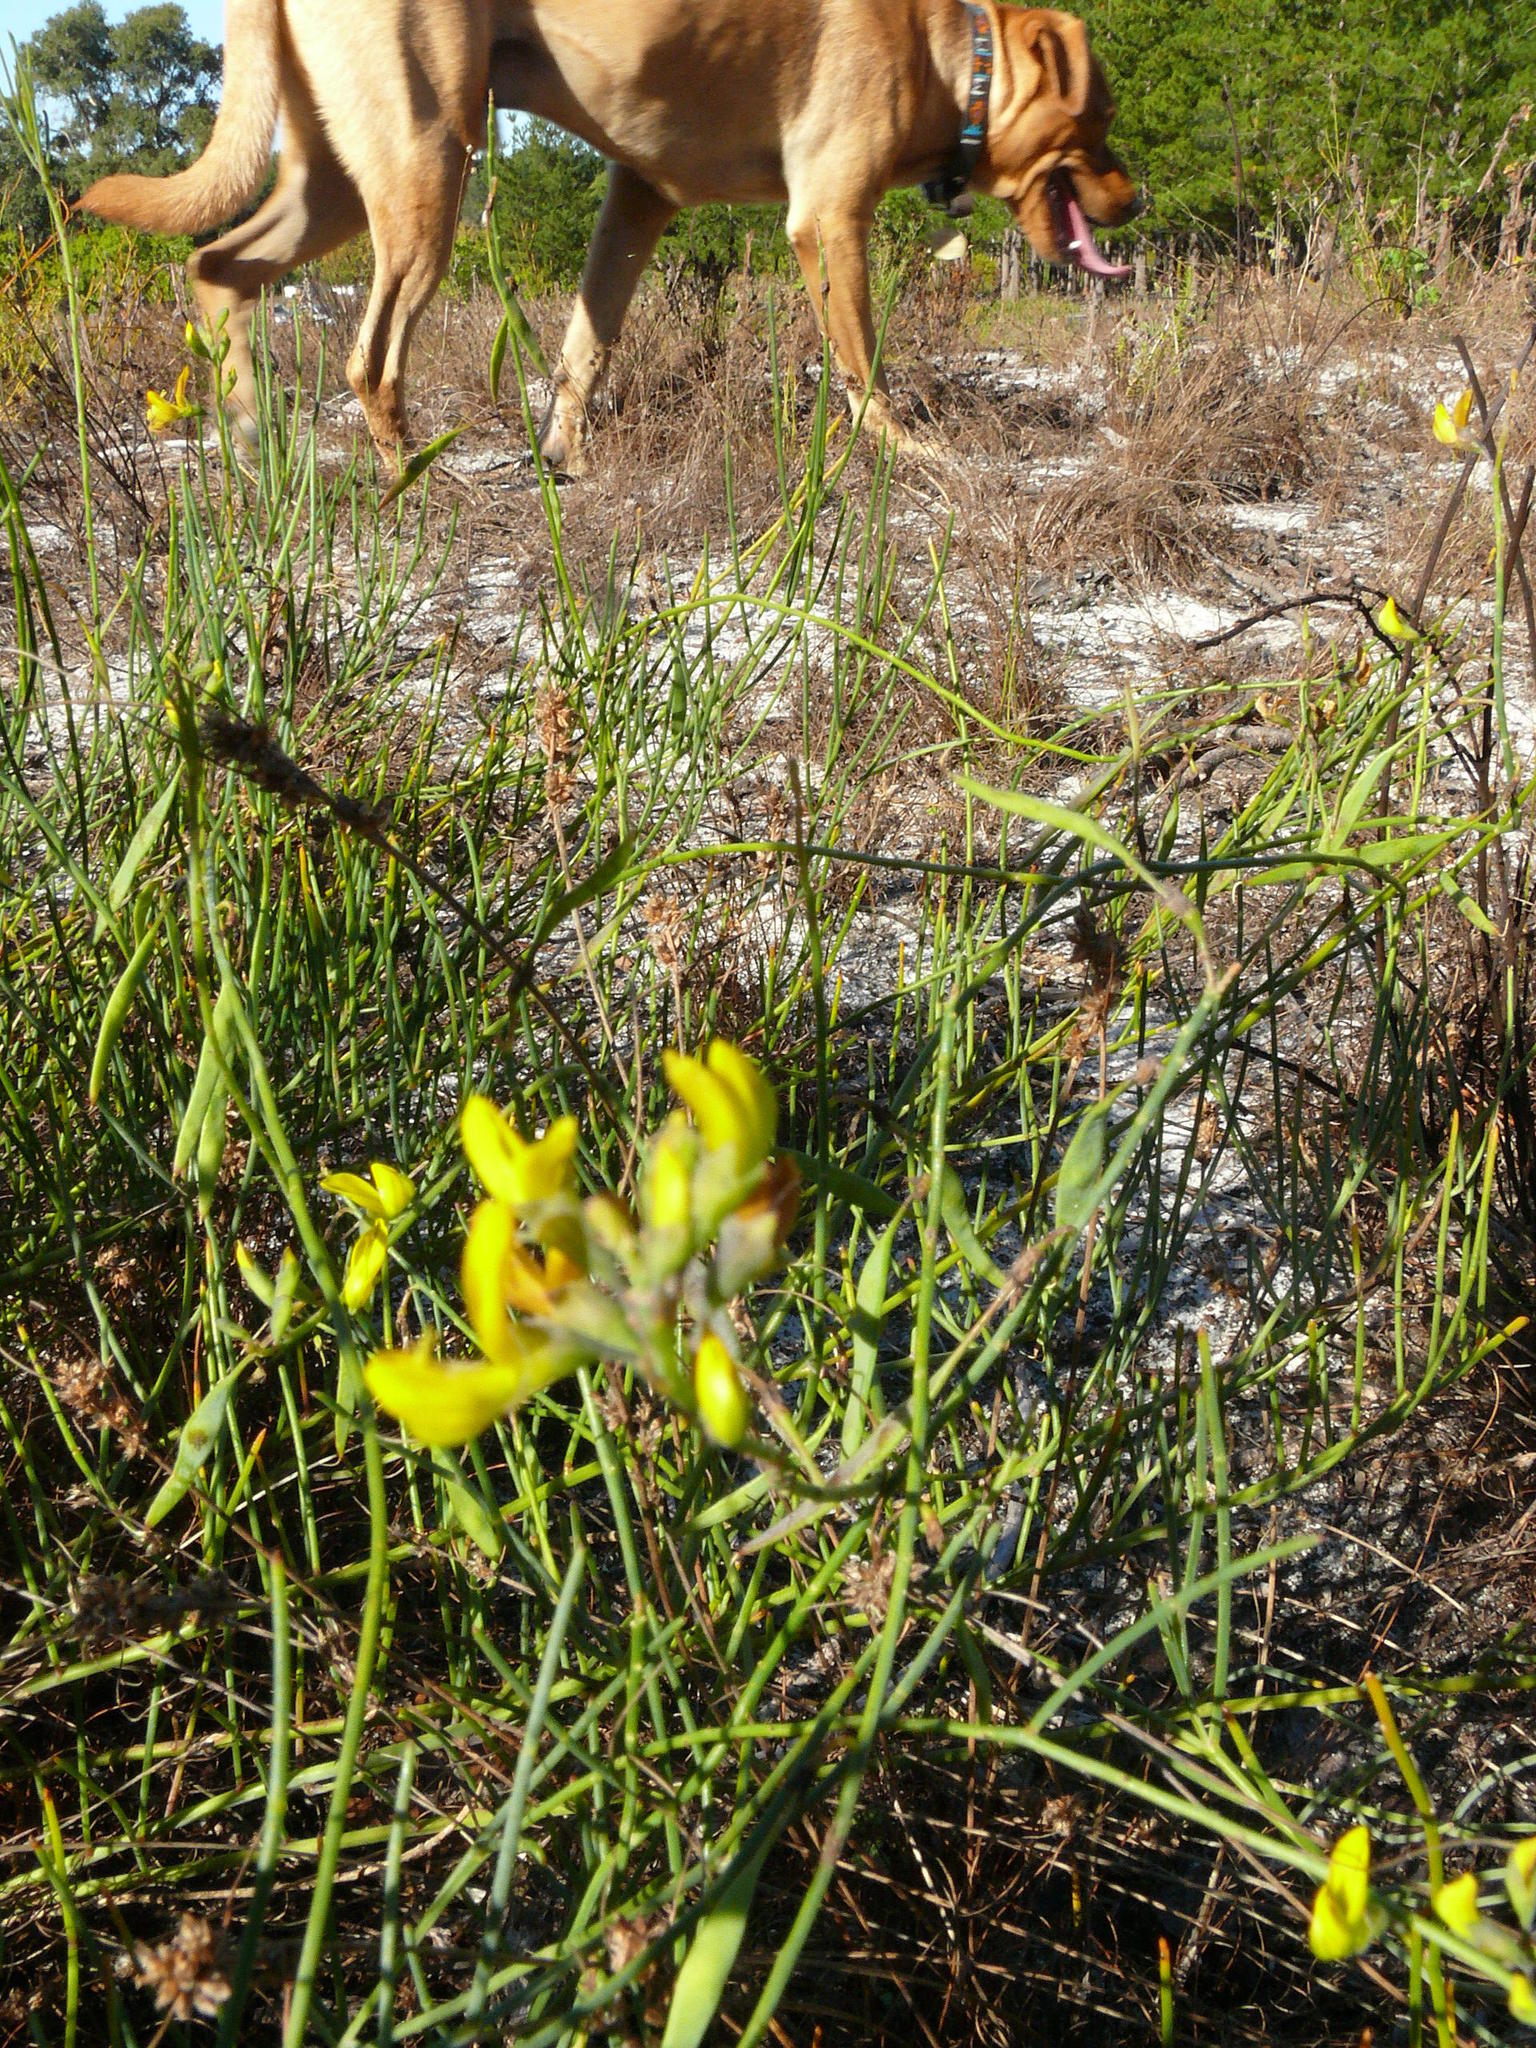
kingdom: Plantae
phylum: Tracheophyta
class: Magnoliopsida
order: Fabales
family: Fabaceae
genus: Lebeckia
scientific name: Lebeckia contaminata
